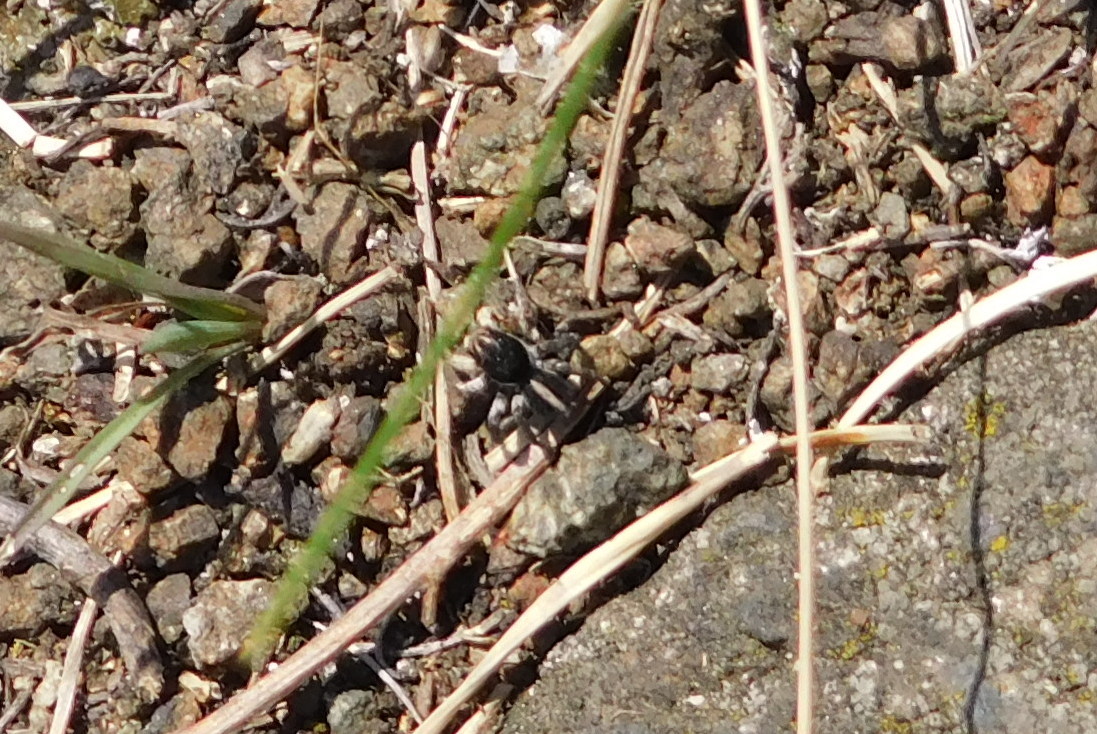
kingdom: Animalia
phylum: Arthropoda
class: Arachnida
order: Araneae
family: Salticidae
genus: Aelurillus
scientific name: Aelurillus v-insignitus
